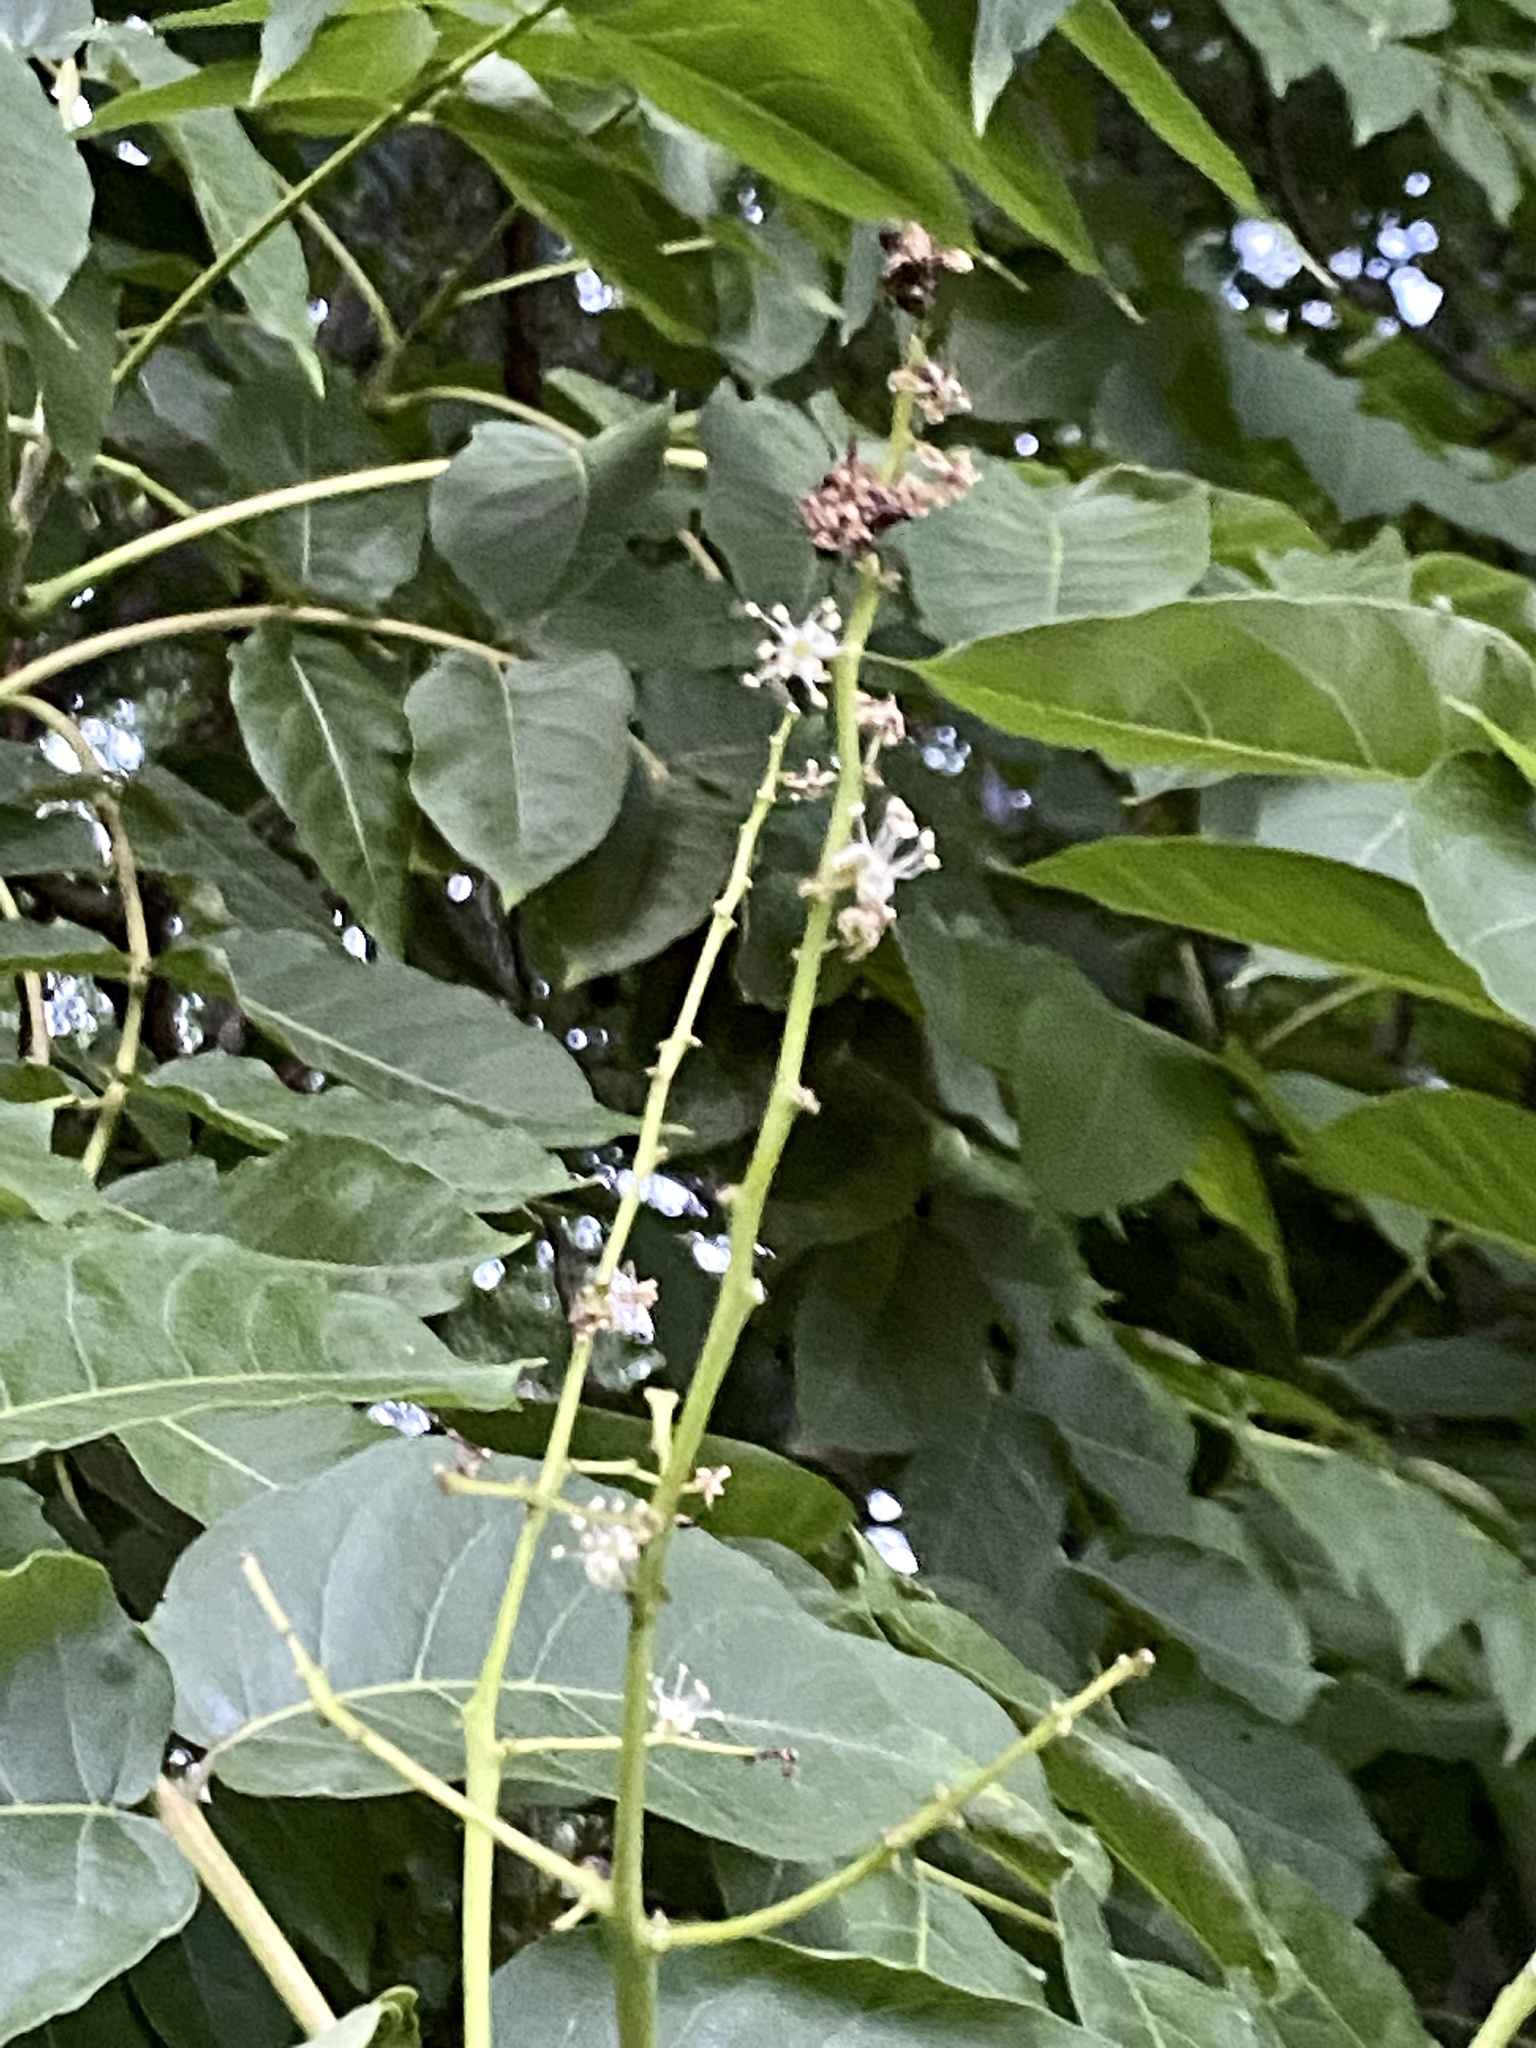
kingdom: Plantae
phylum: Tracheophyta
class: Magnoliopsida
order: Sapindales
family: Simaroubaceae
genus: Ailanthus
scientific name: Ailanthus altissima
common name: Tree-of-heaven
